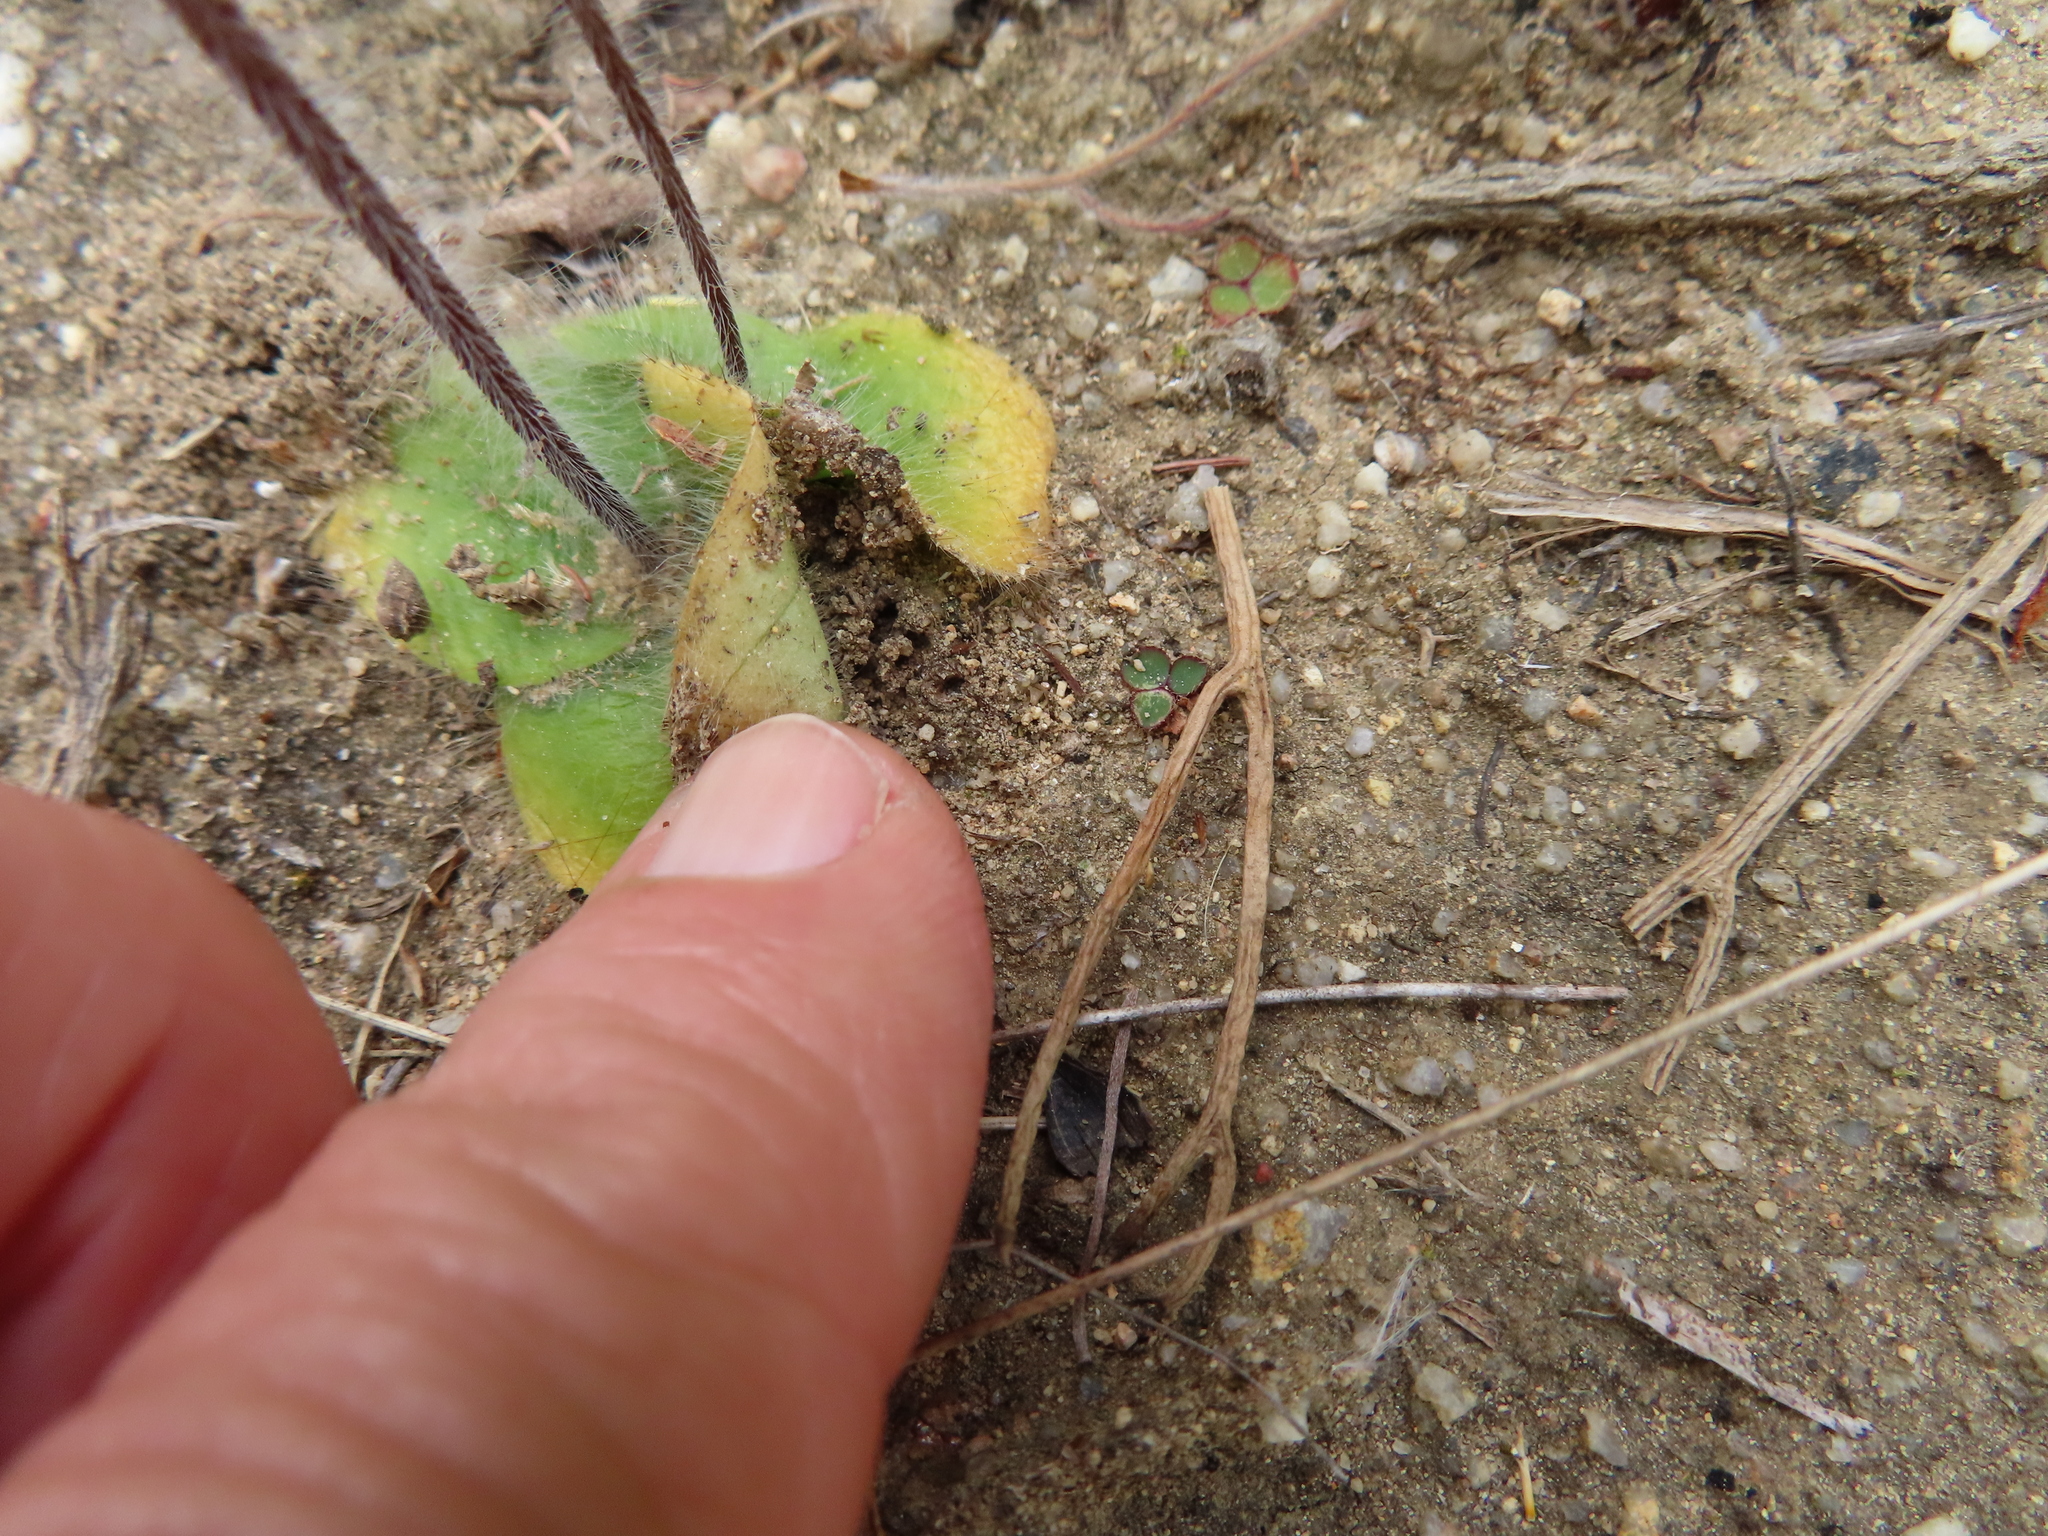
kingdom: Plantae
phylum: Tracheophyta
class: Liliopsida
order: Asparagales
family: Orchidaceae
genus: Holothrix
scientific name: Holothrix villosa
